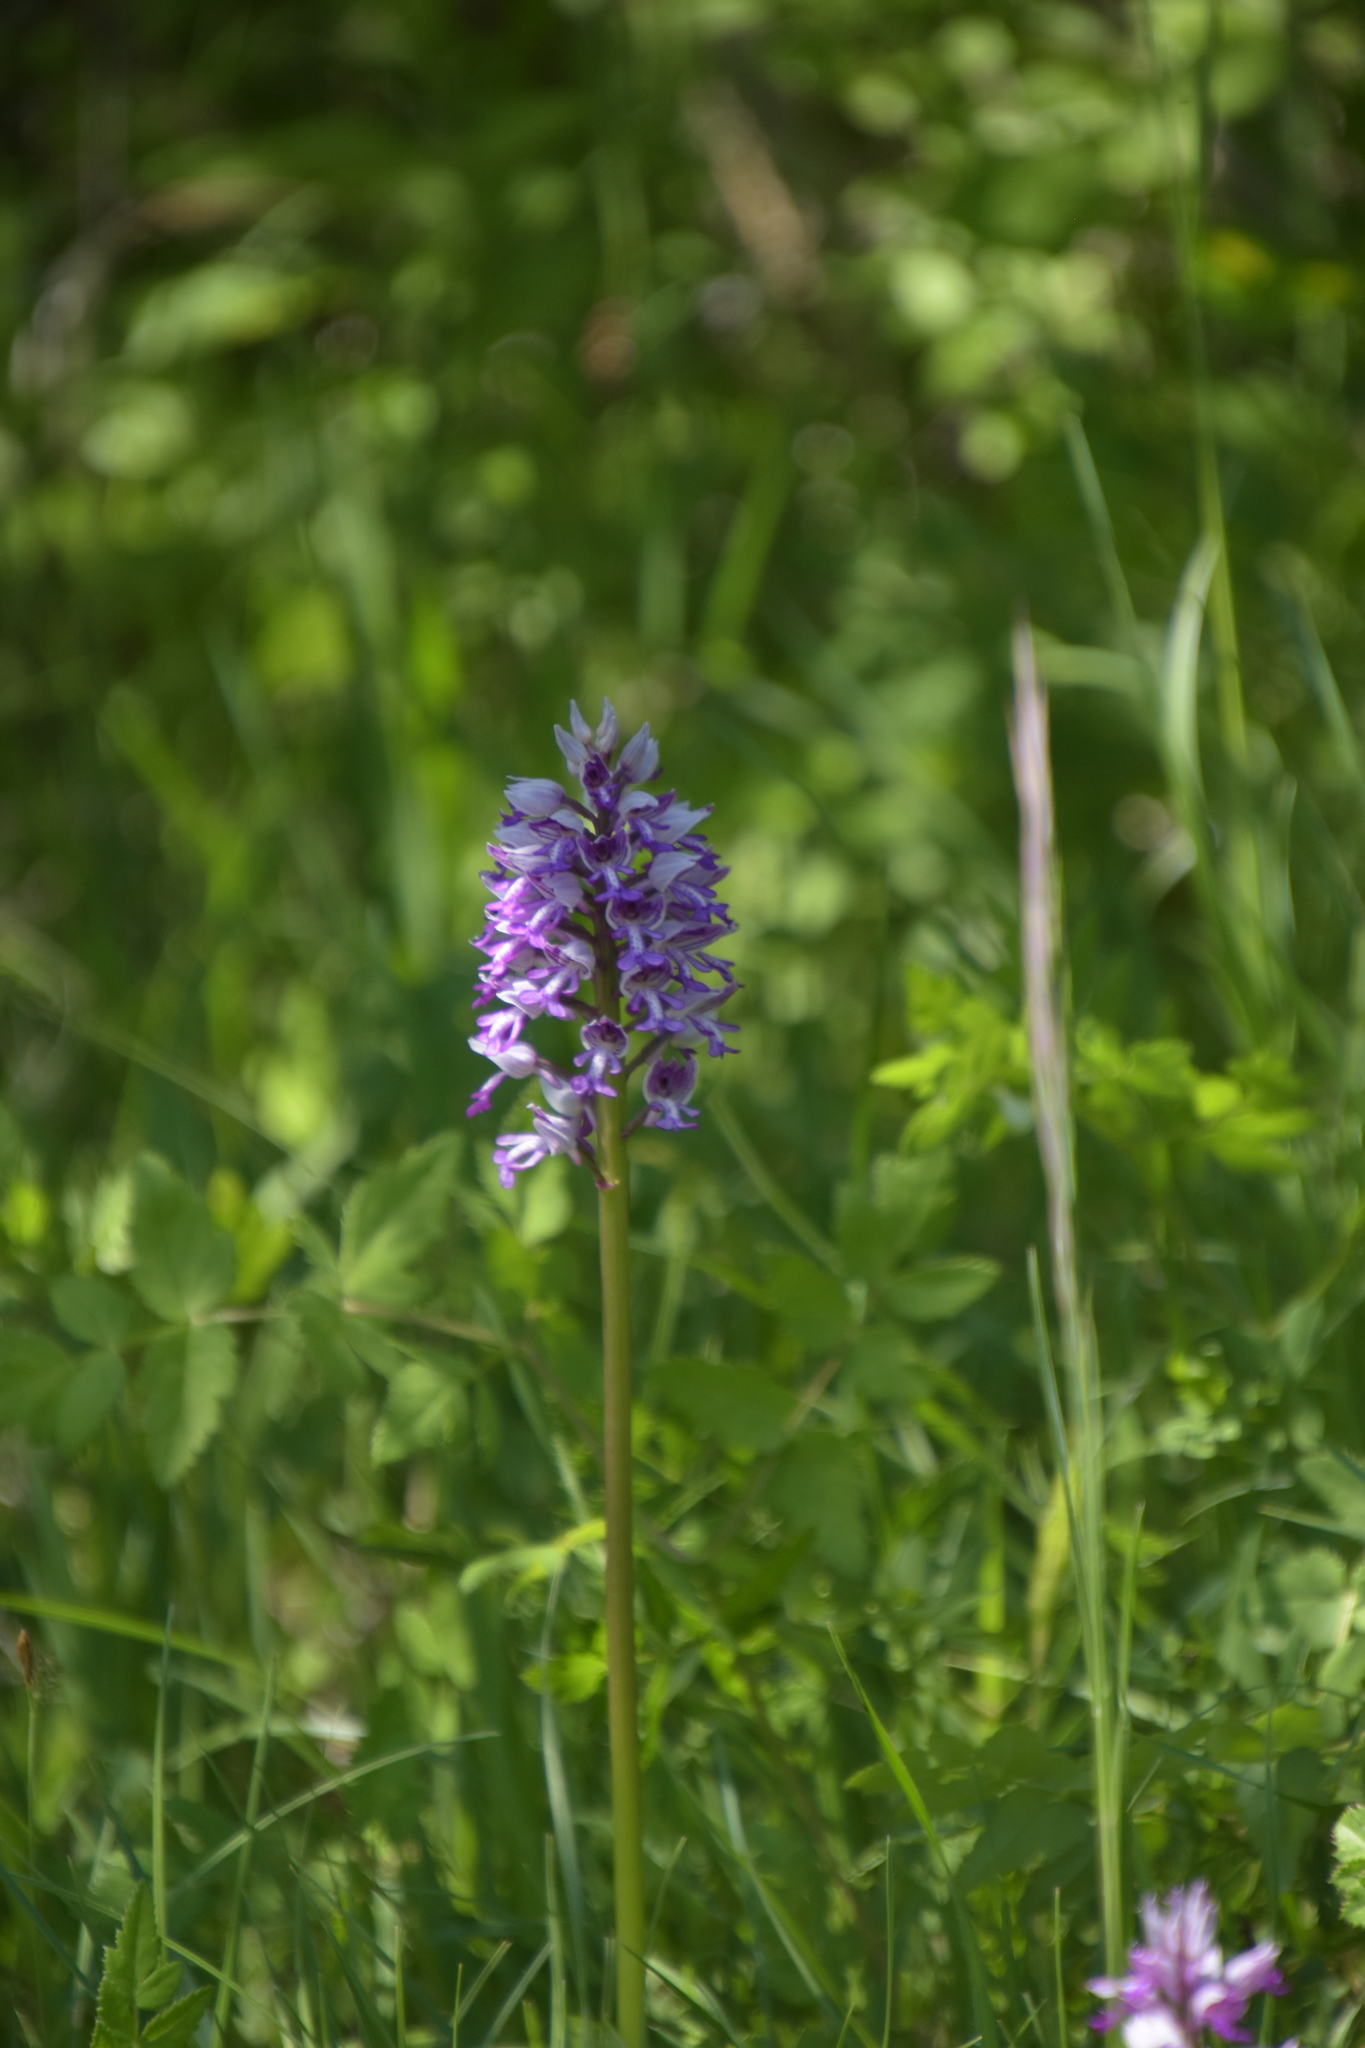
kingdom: Plantae
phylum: Tracheophyta
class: Liliopsida
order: Asparagales
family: Orchidaceae
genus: Orchis
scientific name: Orchis militaris
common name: Military orchid
